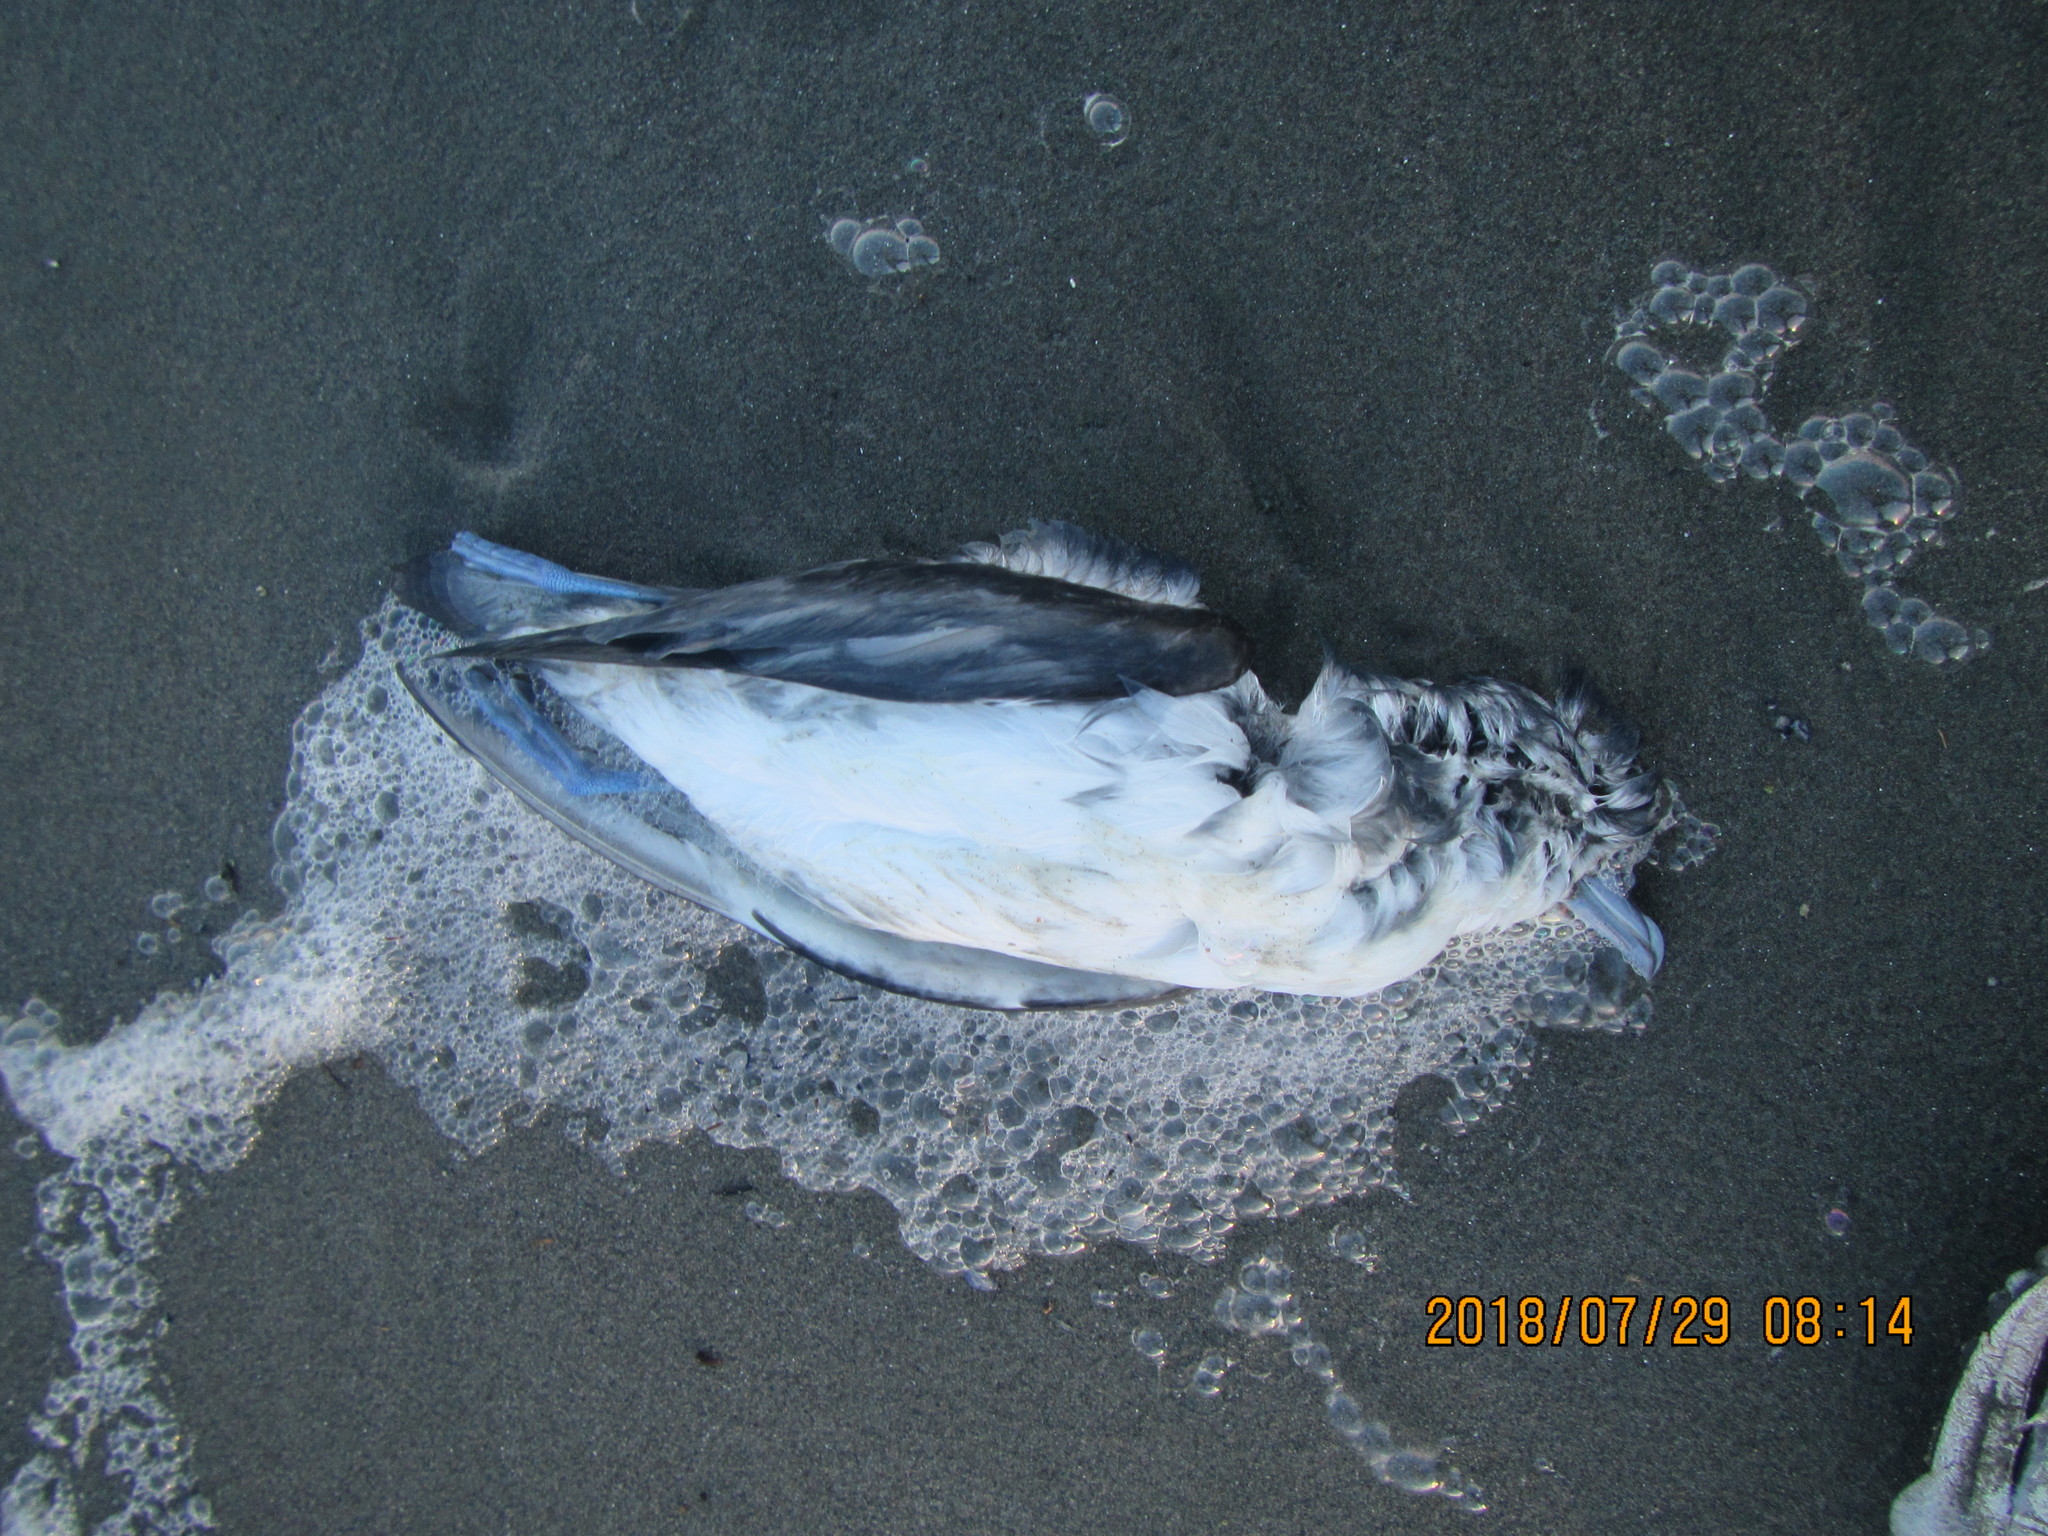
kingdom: Animalia
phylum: Chordata
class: Aves
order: Procellariiformes
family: Procellariidae
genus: Pachyptila
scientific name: Pachyptila turtur
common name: Fairy prion
